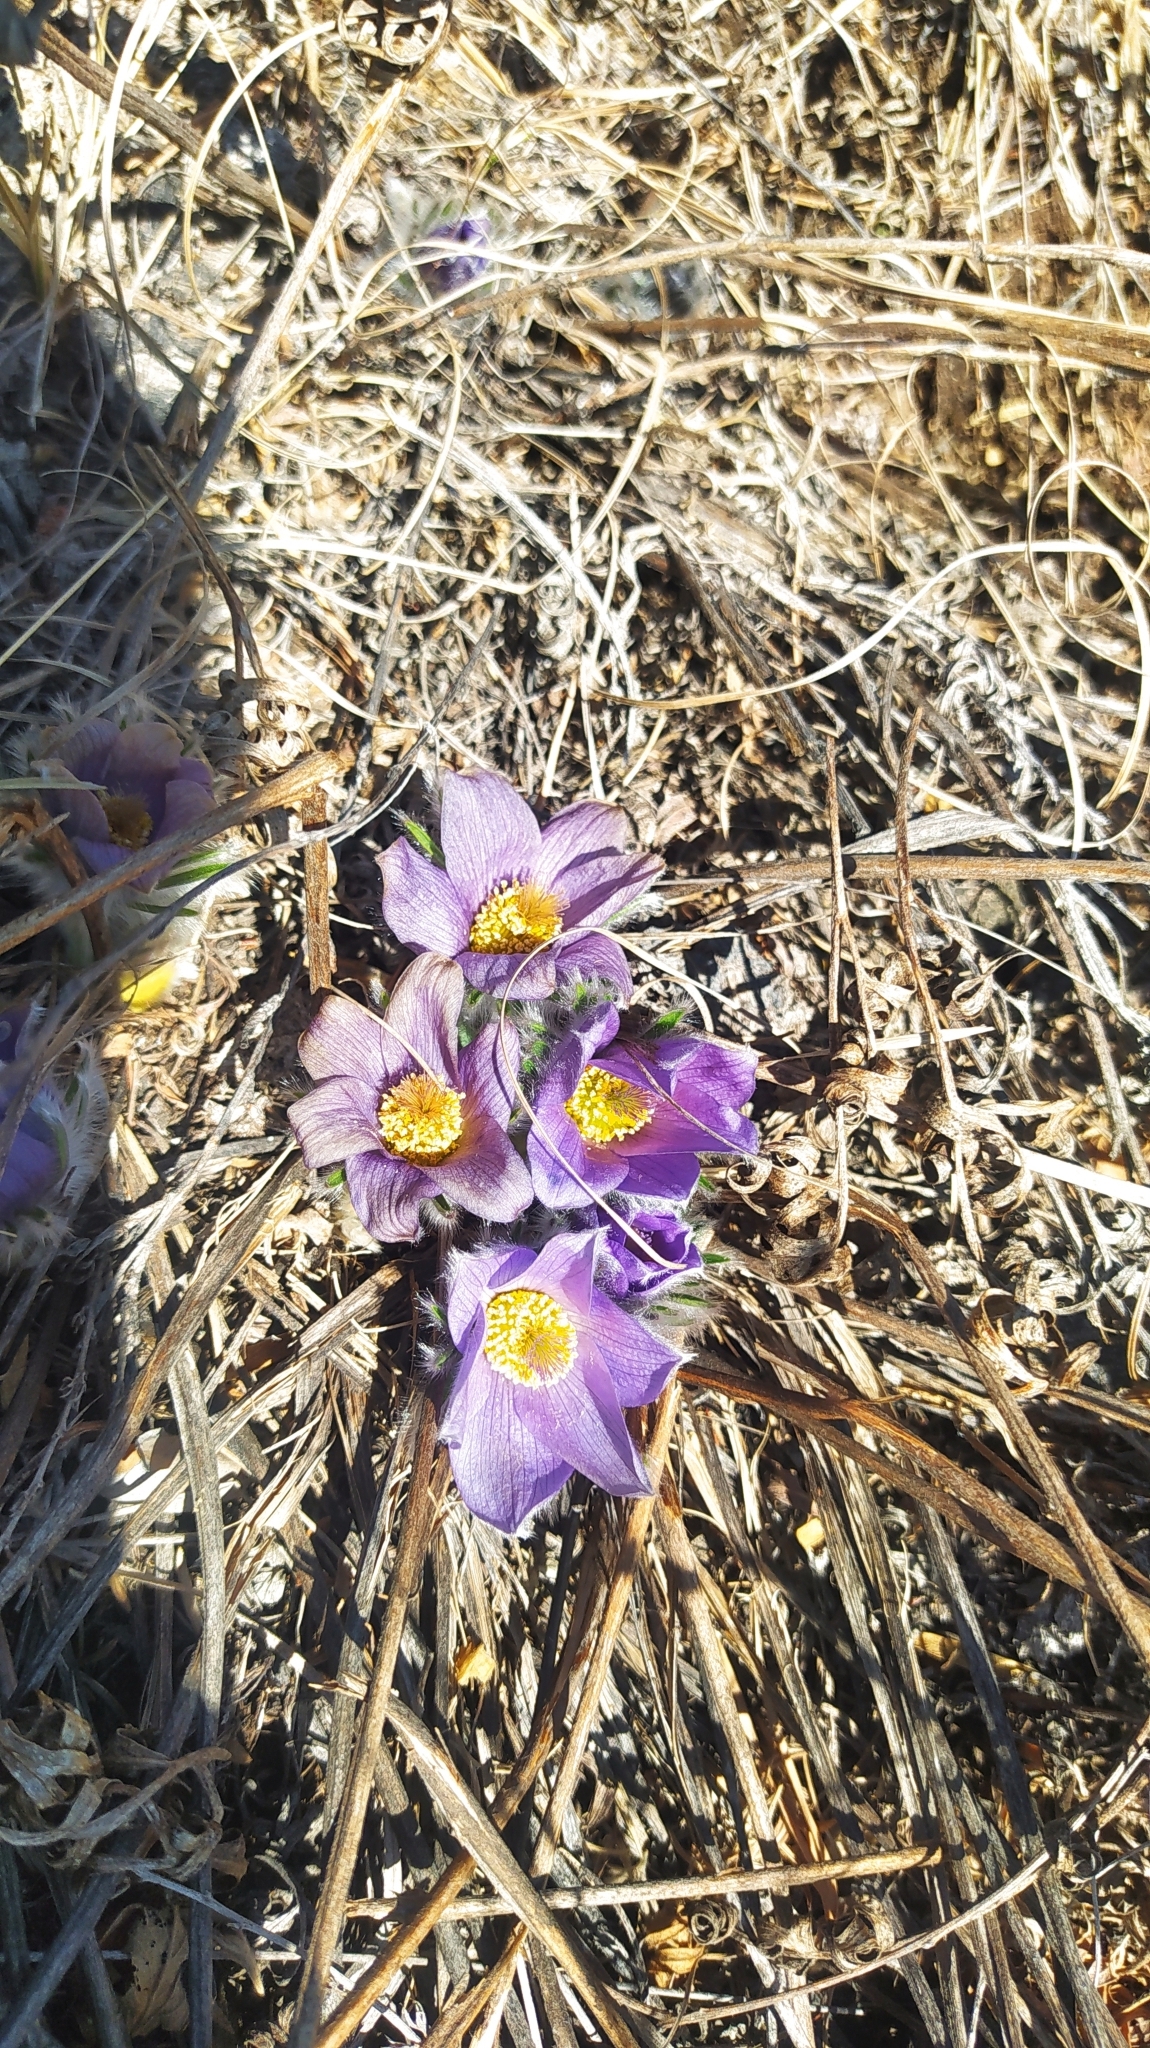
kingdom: Plantae
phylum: Tracheophyta
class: Magnoliopsida
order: Ranunculales
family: Ranunculaceae
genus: Pulsatilla
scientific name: Pulsatilla turczaninovii
